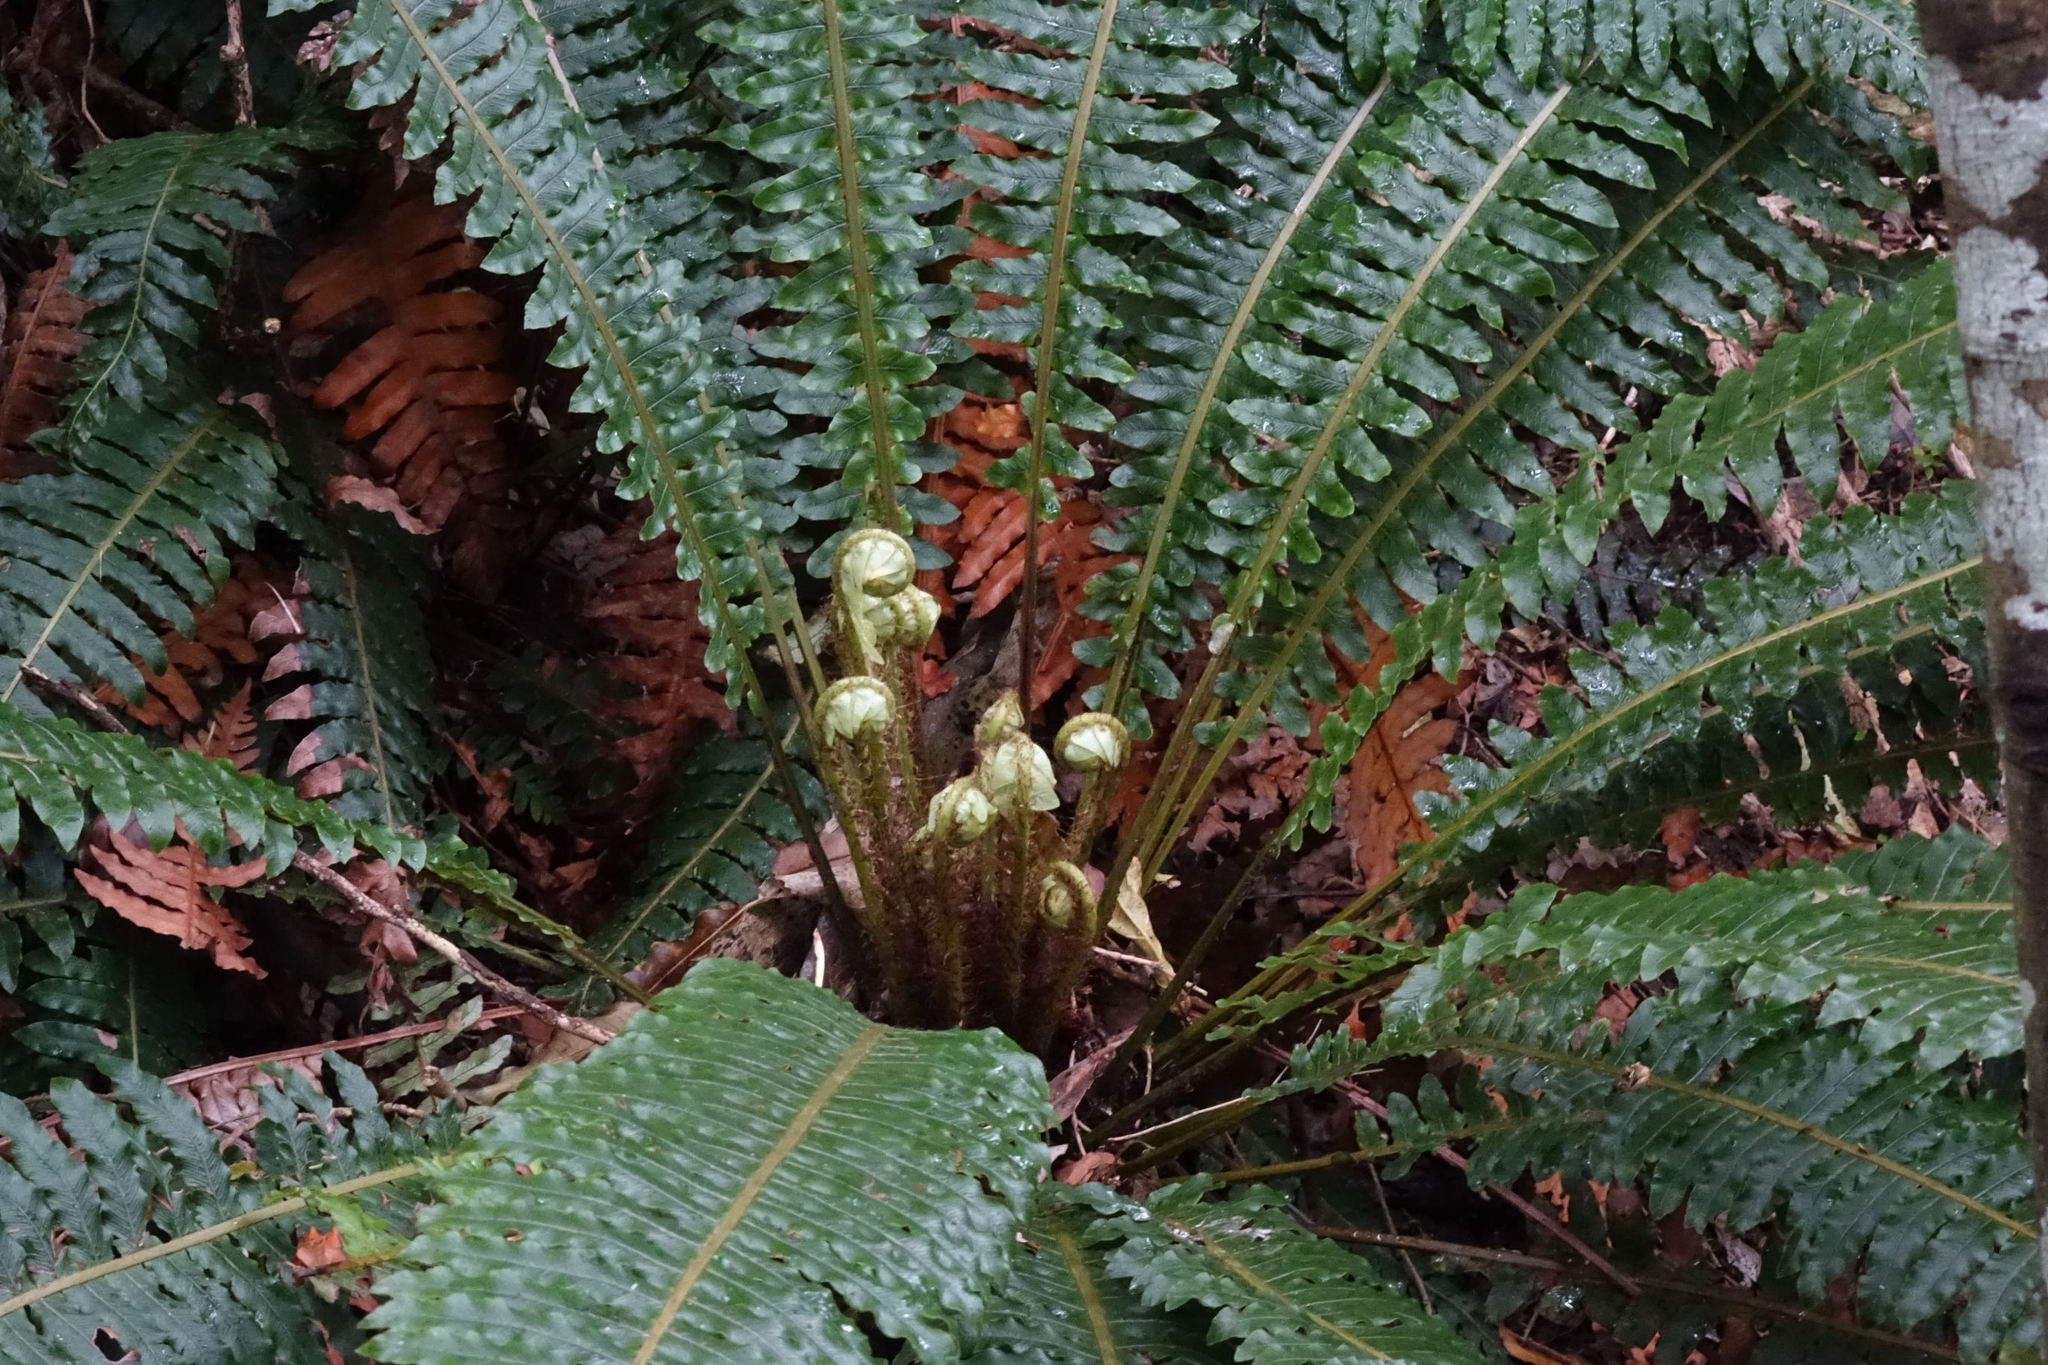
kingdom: Plantae
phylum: Tracheophyta
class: Polypodiopsida
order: Polypodiales
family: Blechnaceae
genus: Lomaria
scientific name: Lomaria discolor
